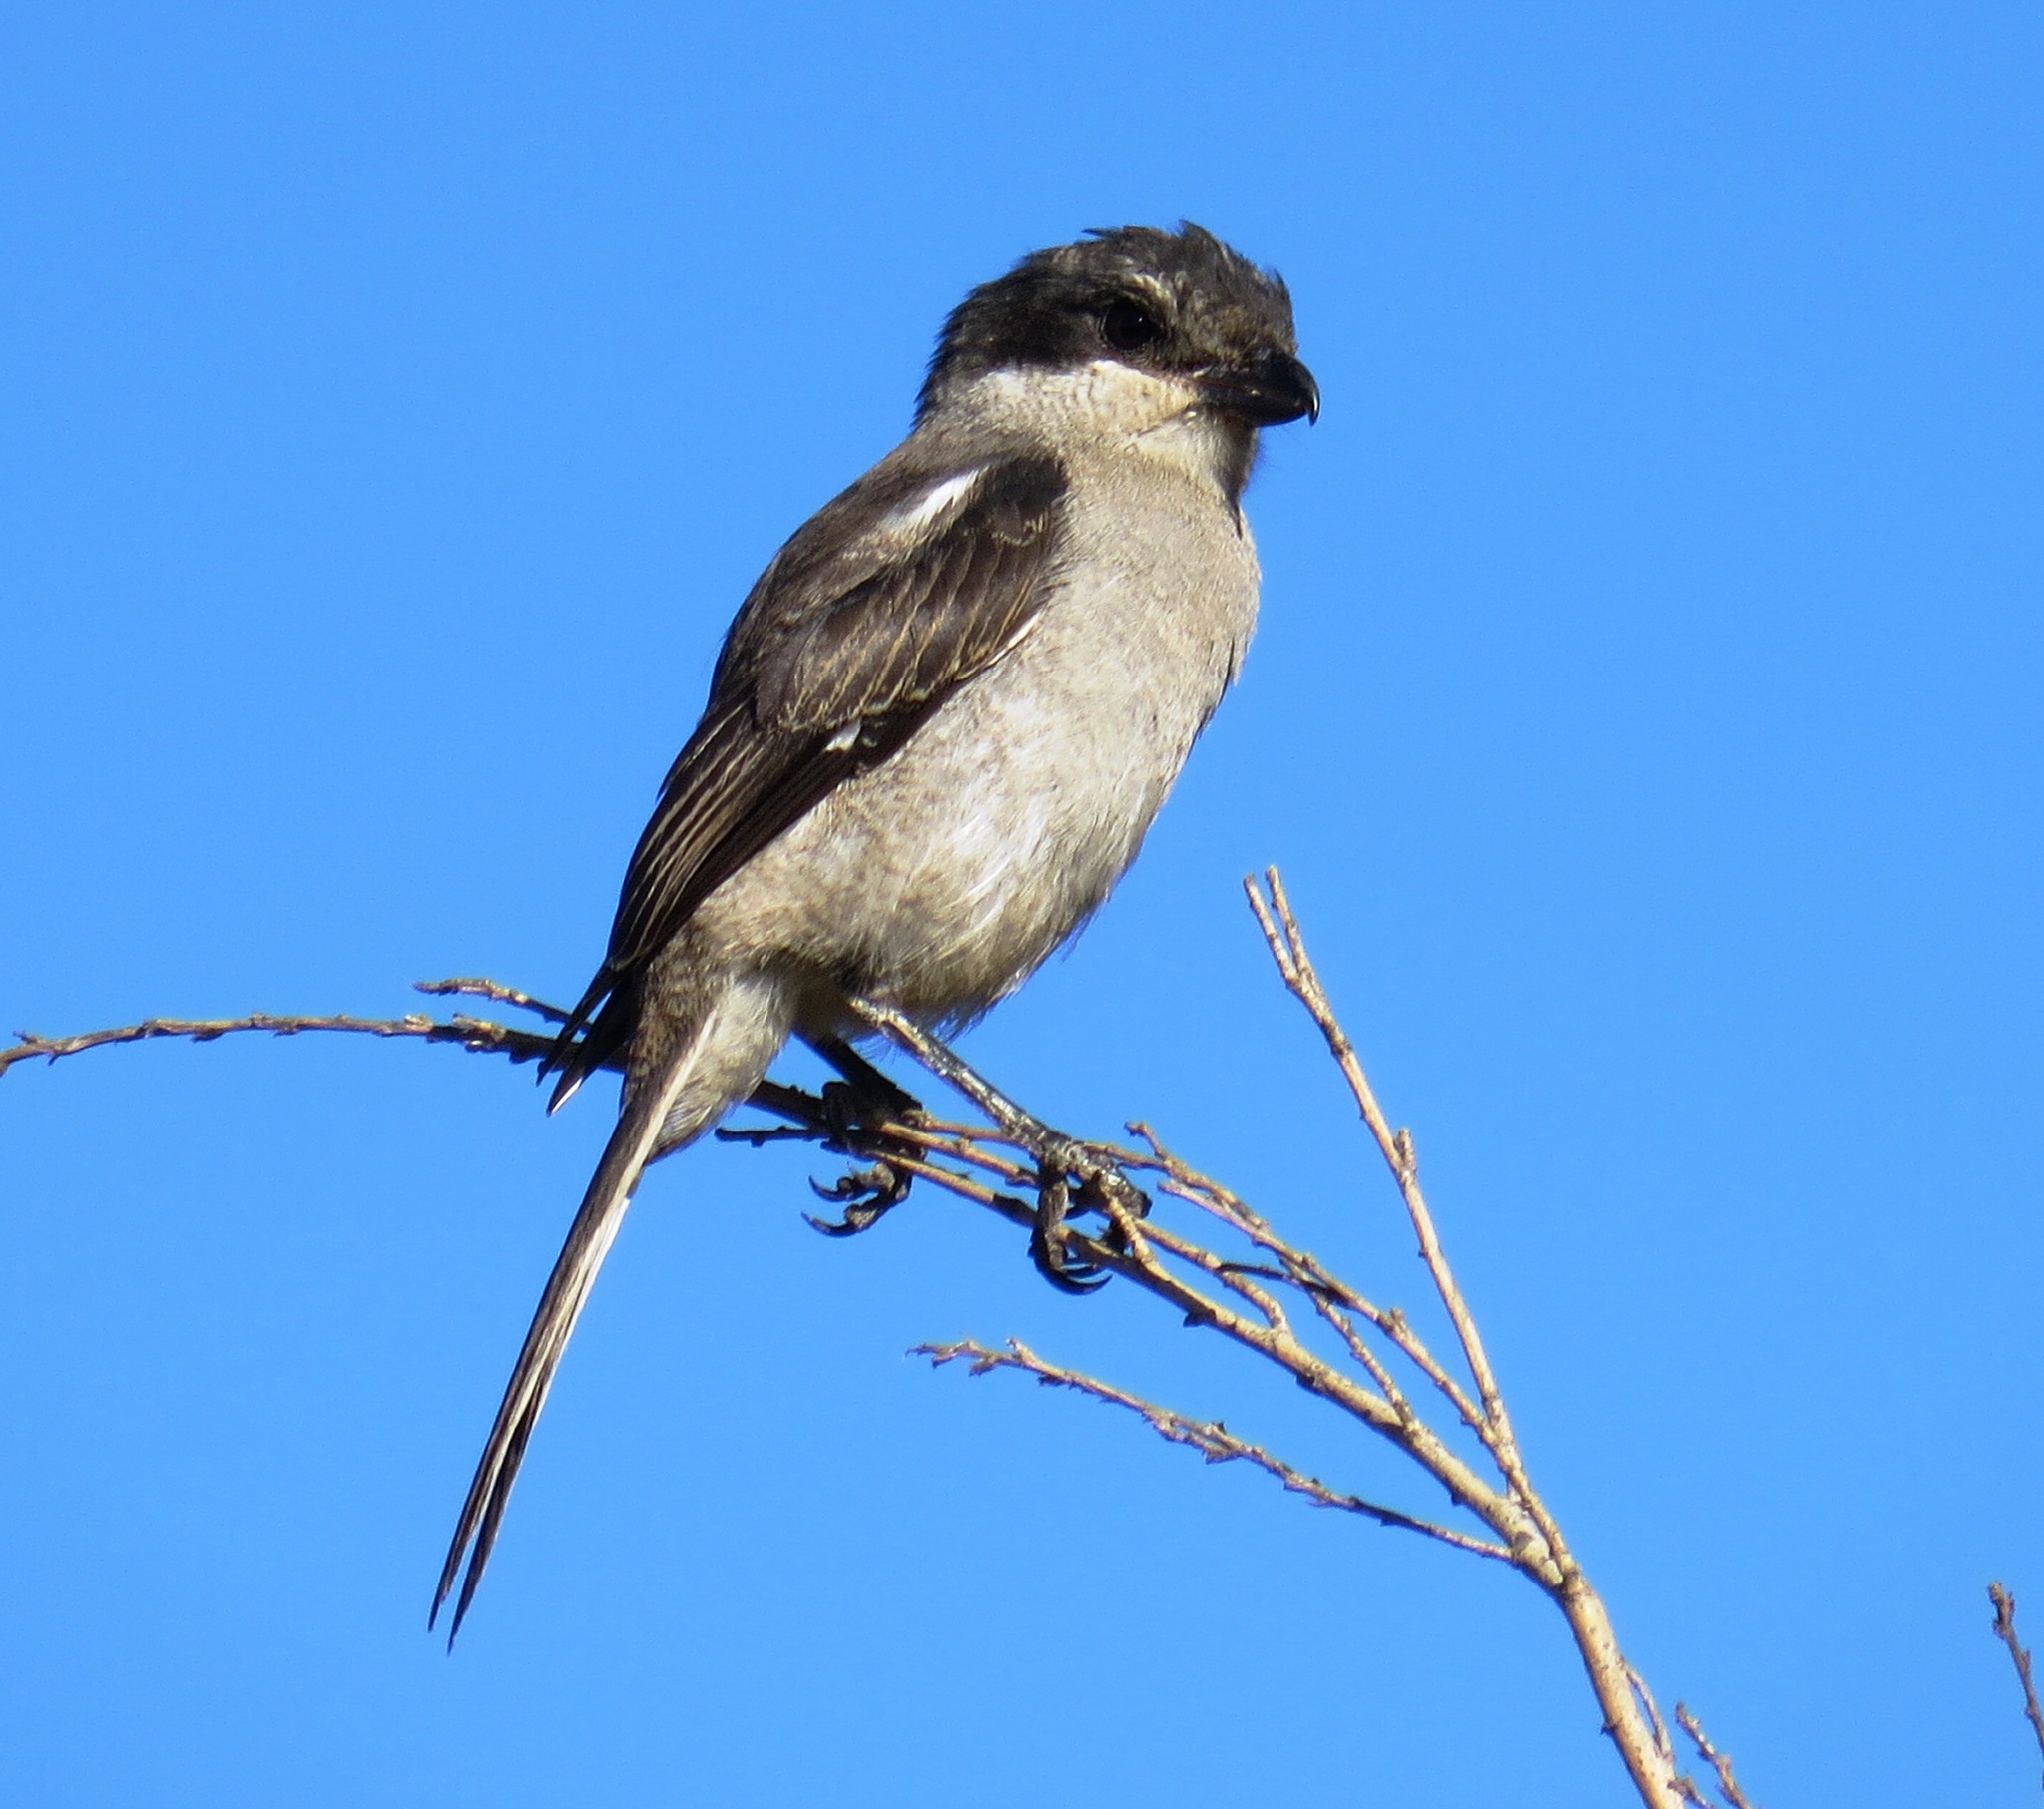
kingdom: Animalia
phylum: Chordata
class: Aves
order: Passeriformes
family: Laniidae
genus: Lanius
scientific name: Lanius collaris
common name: Southern fiscal
